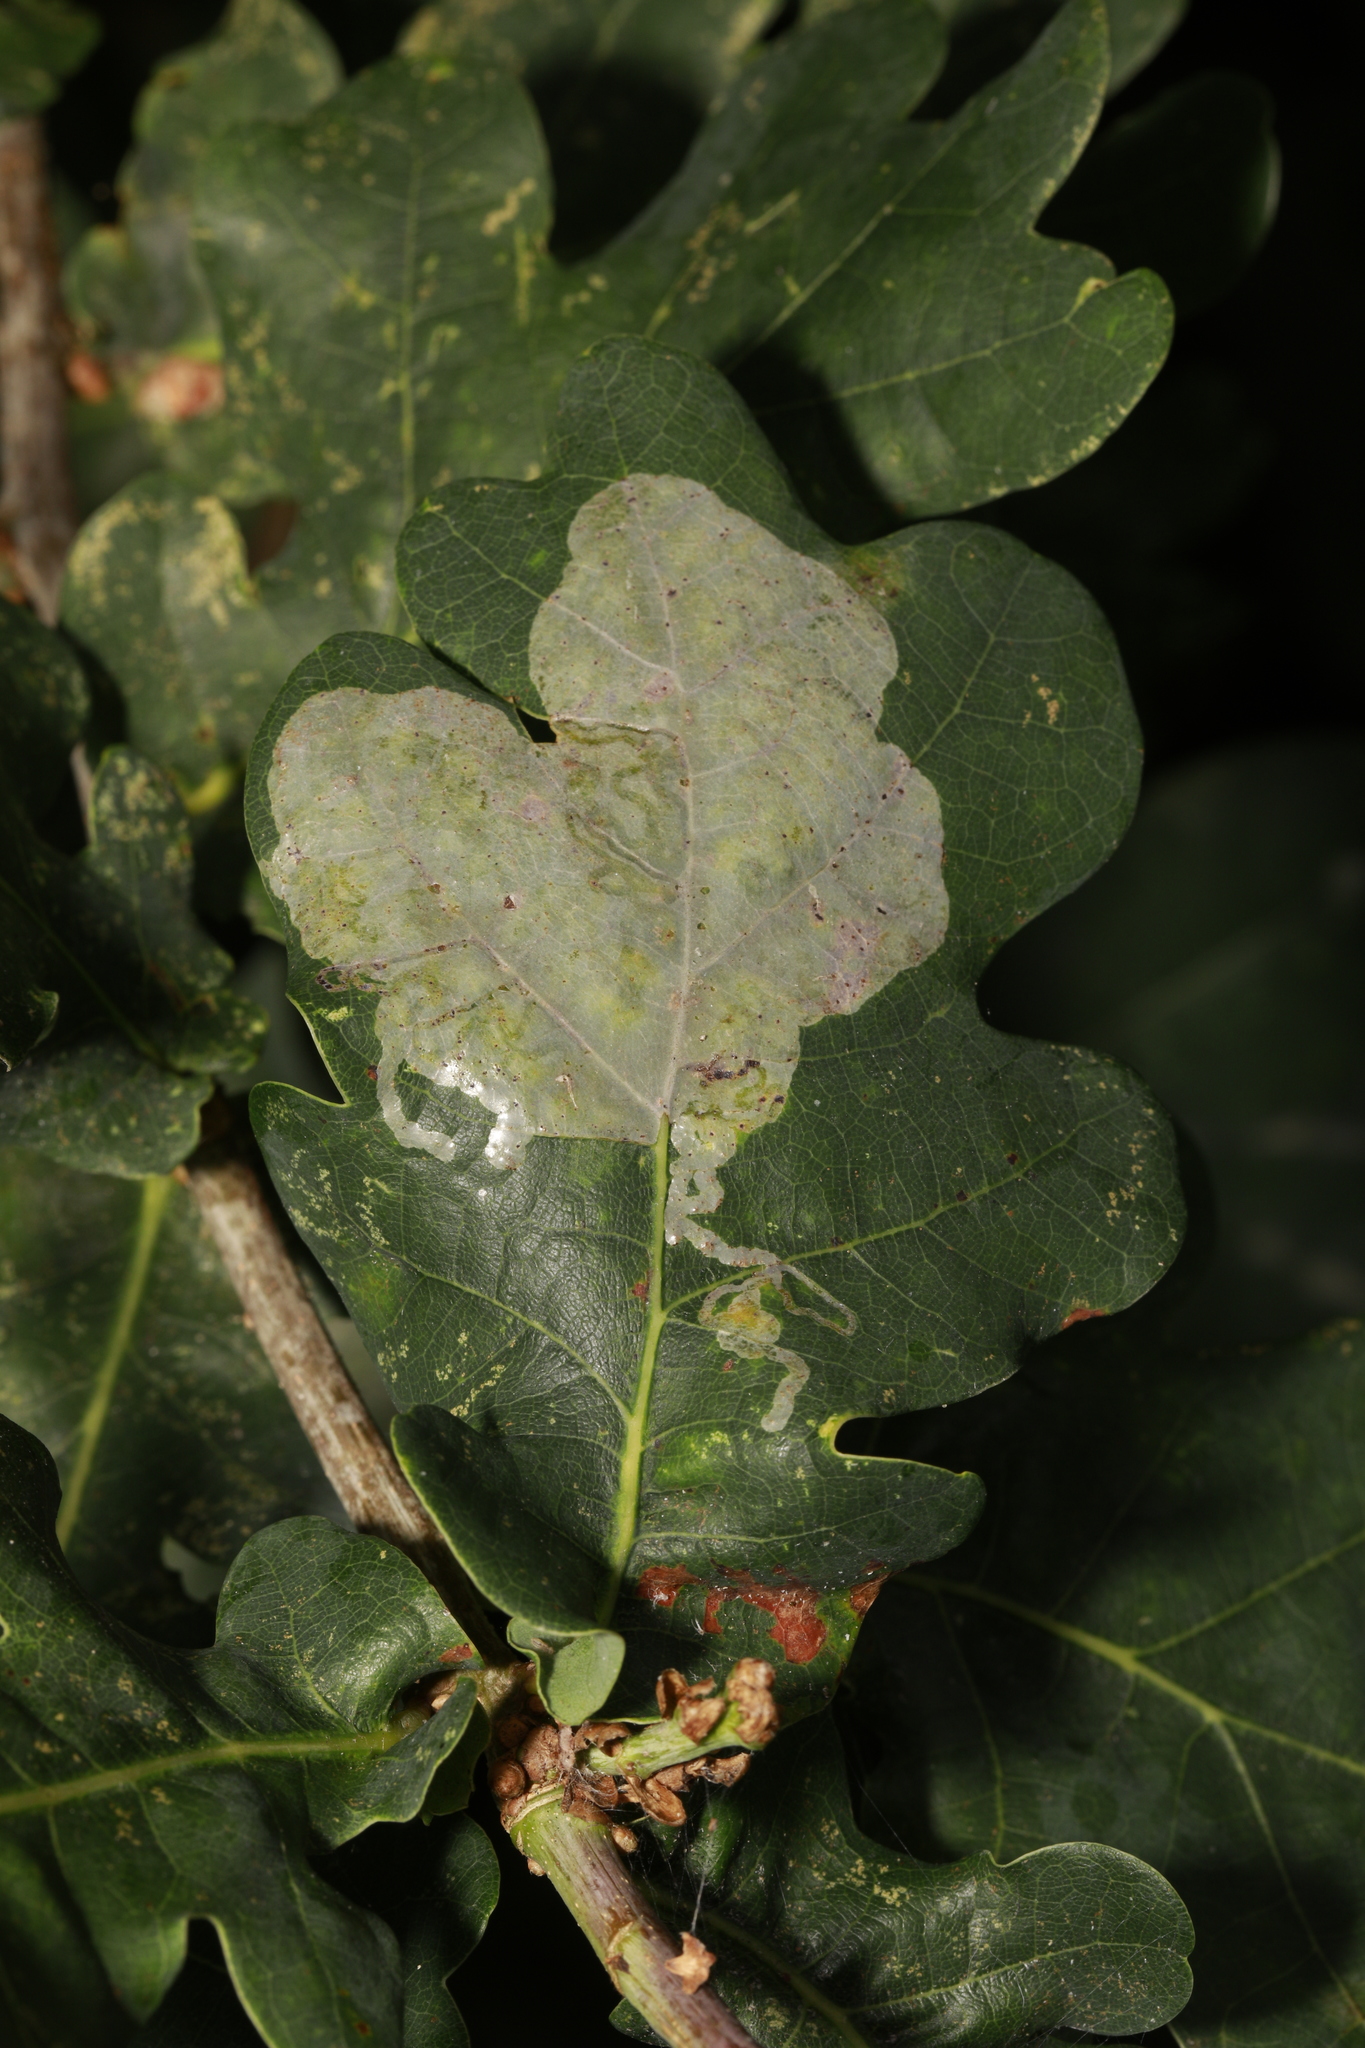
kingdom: Animalia
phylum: Arthropoda
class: Insecta
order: Lepidoptera
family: Gracillariidae
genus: Acrocercops
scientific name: Acrocercops brongniardella
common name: Brown oak slender
